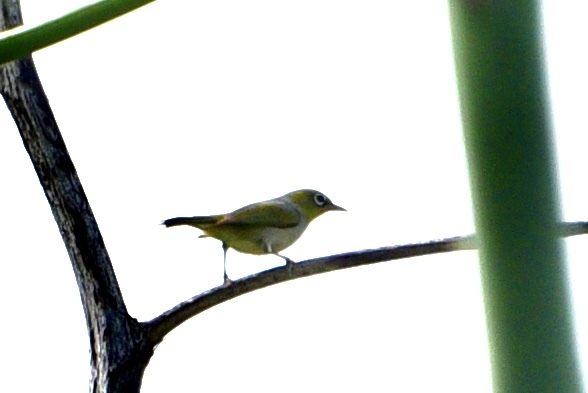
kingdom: Animalia
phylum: Chordata
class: Aves
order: Passeriformes
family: Zosteropidae
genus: Zosterops
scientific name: Zosterops lateralis
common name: Silvereye
